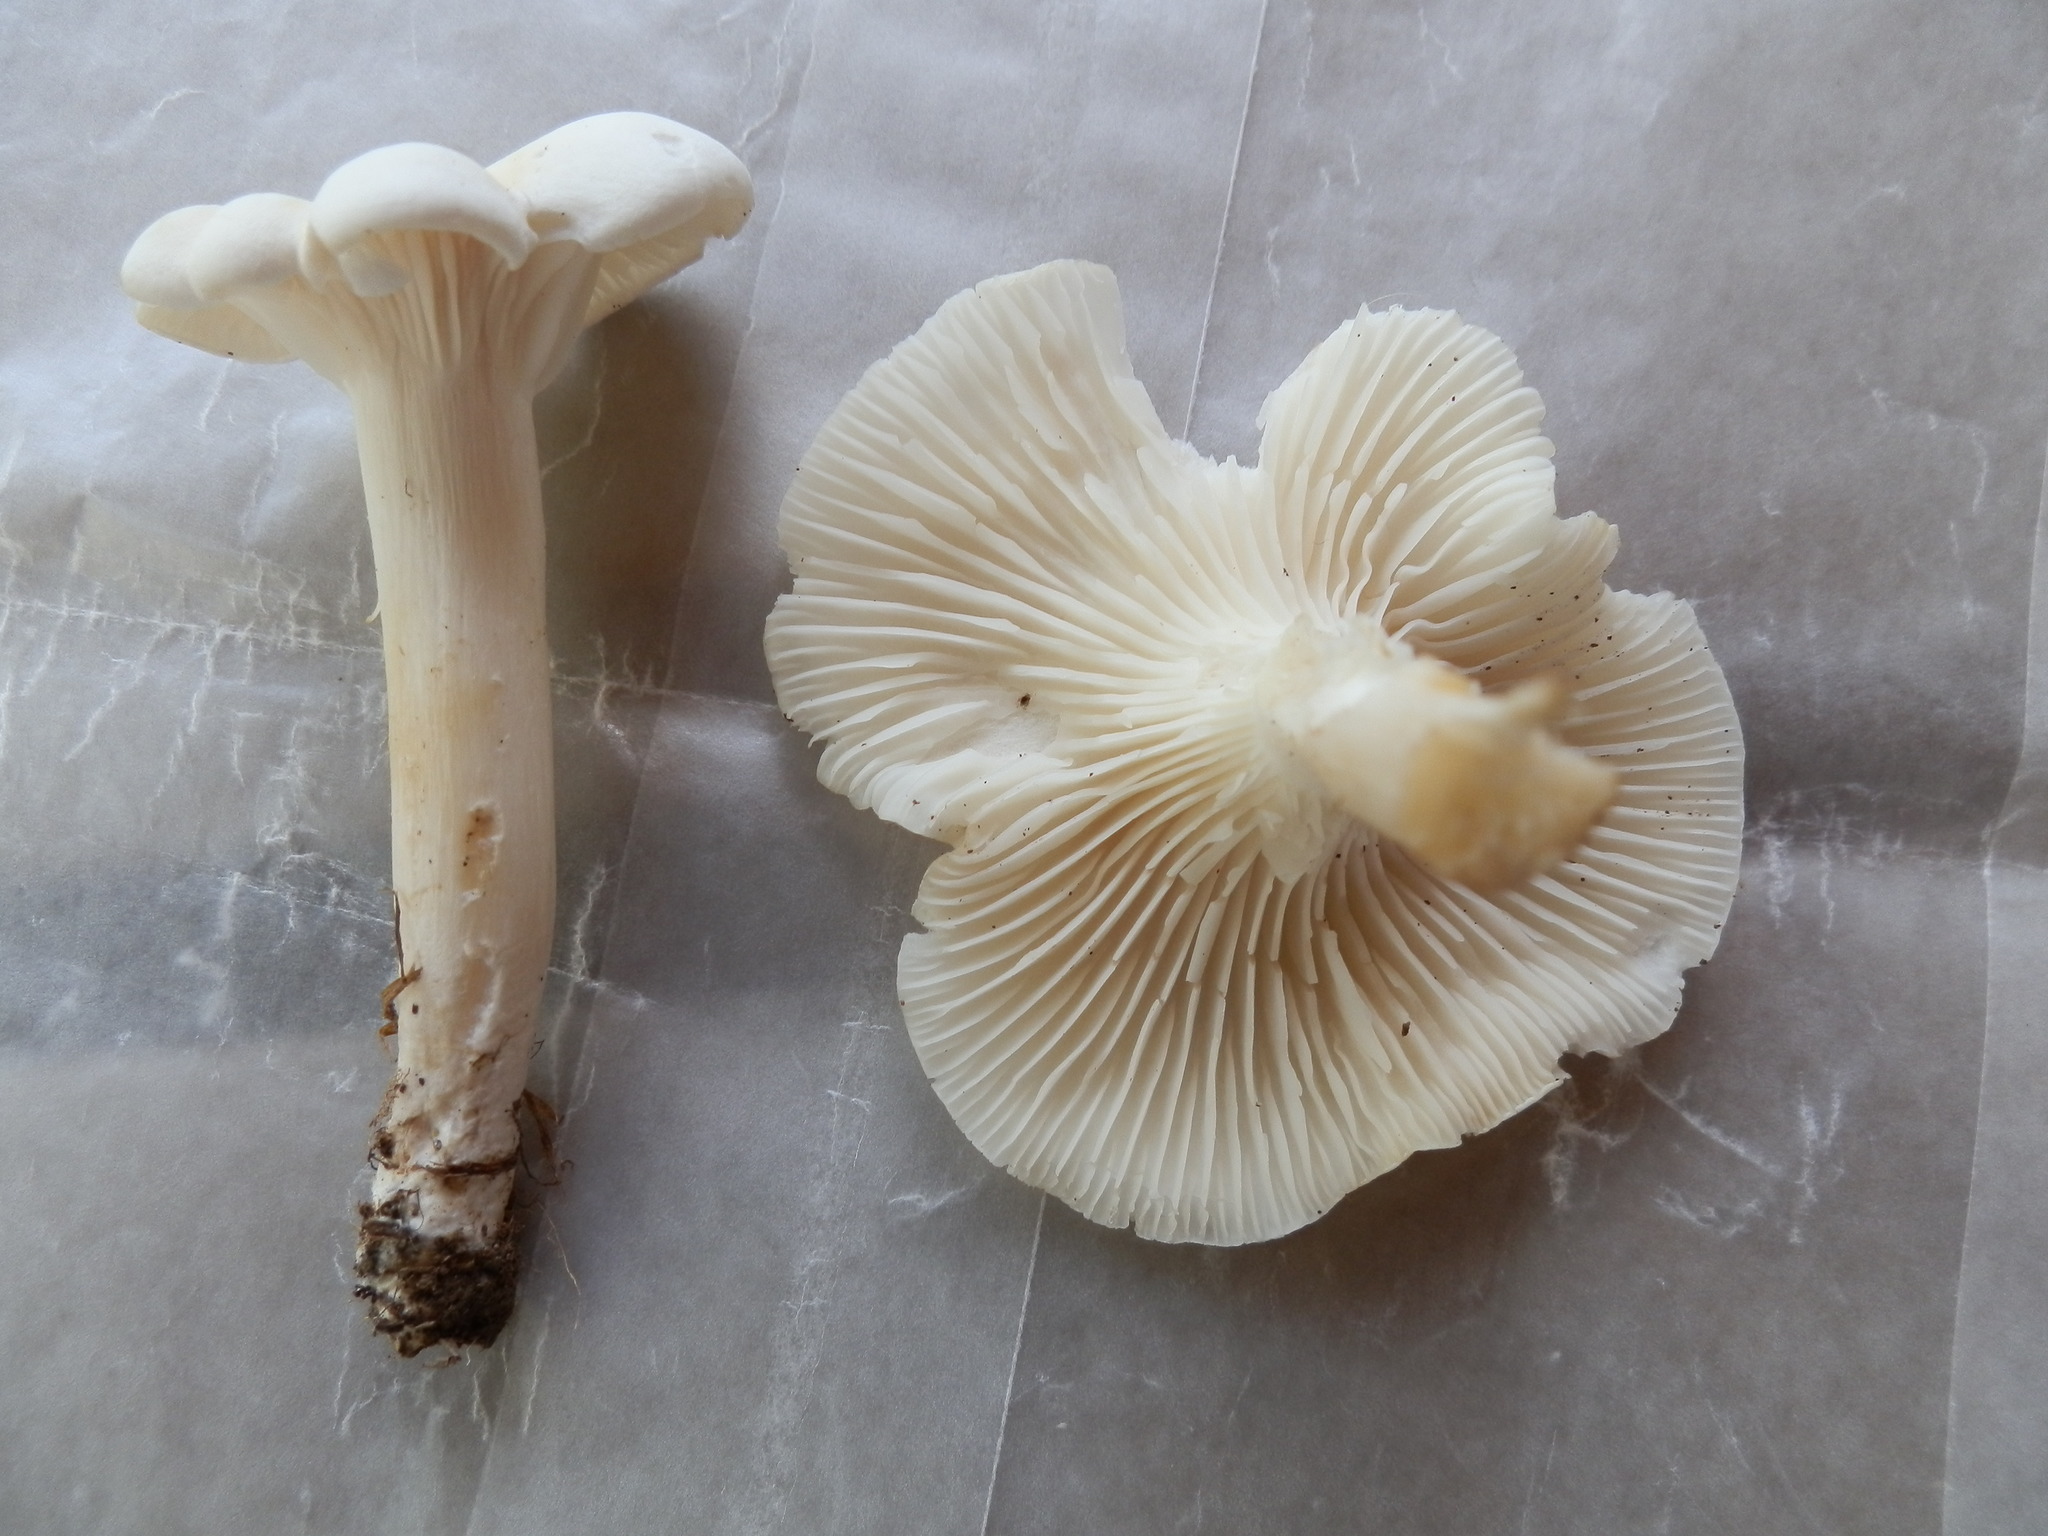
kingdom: Fungi
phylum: Basidiomycota
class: Agaricomycetes
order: Agaricales
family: Hygrophoraceae
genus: Hygrocybe
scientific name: Hygrocybe angustifolia
